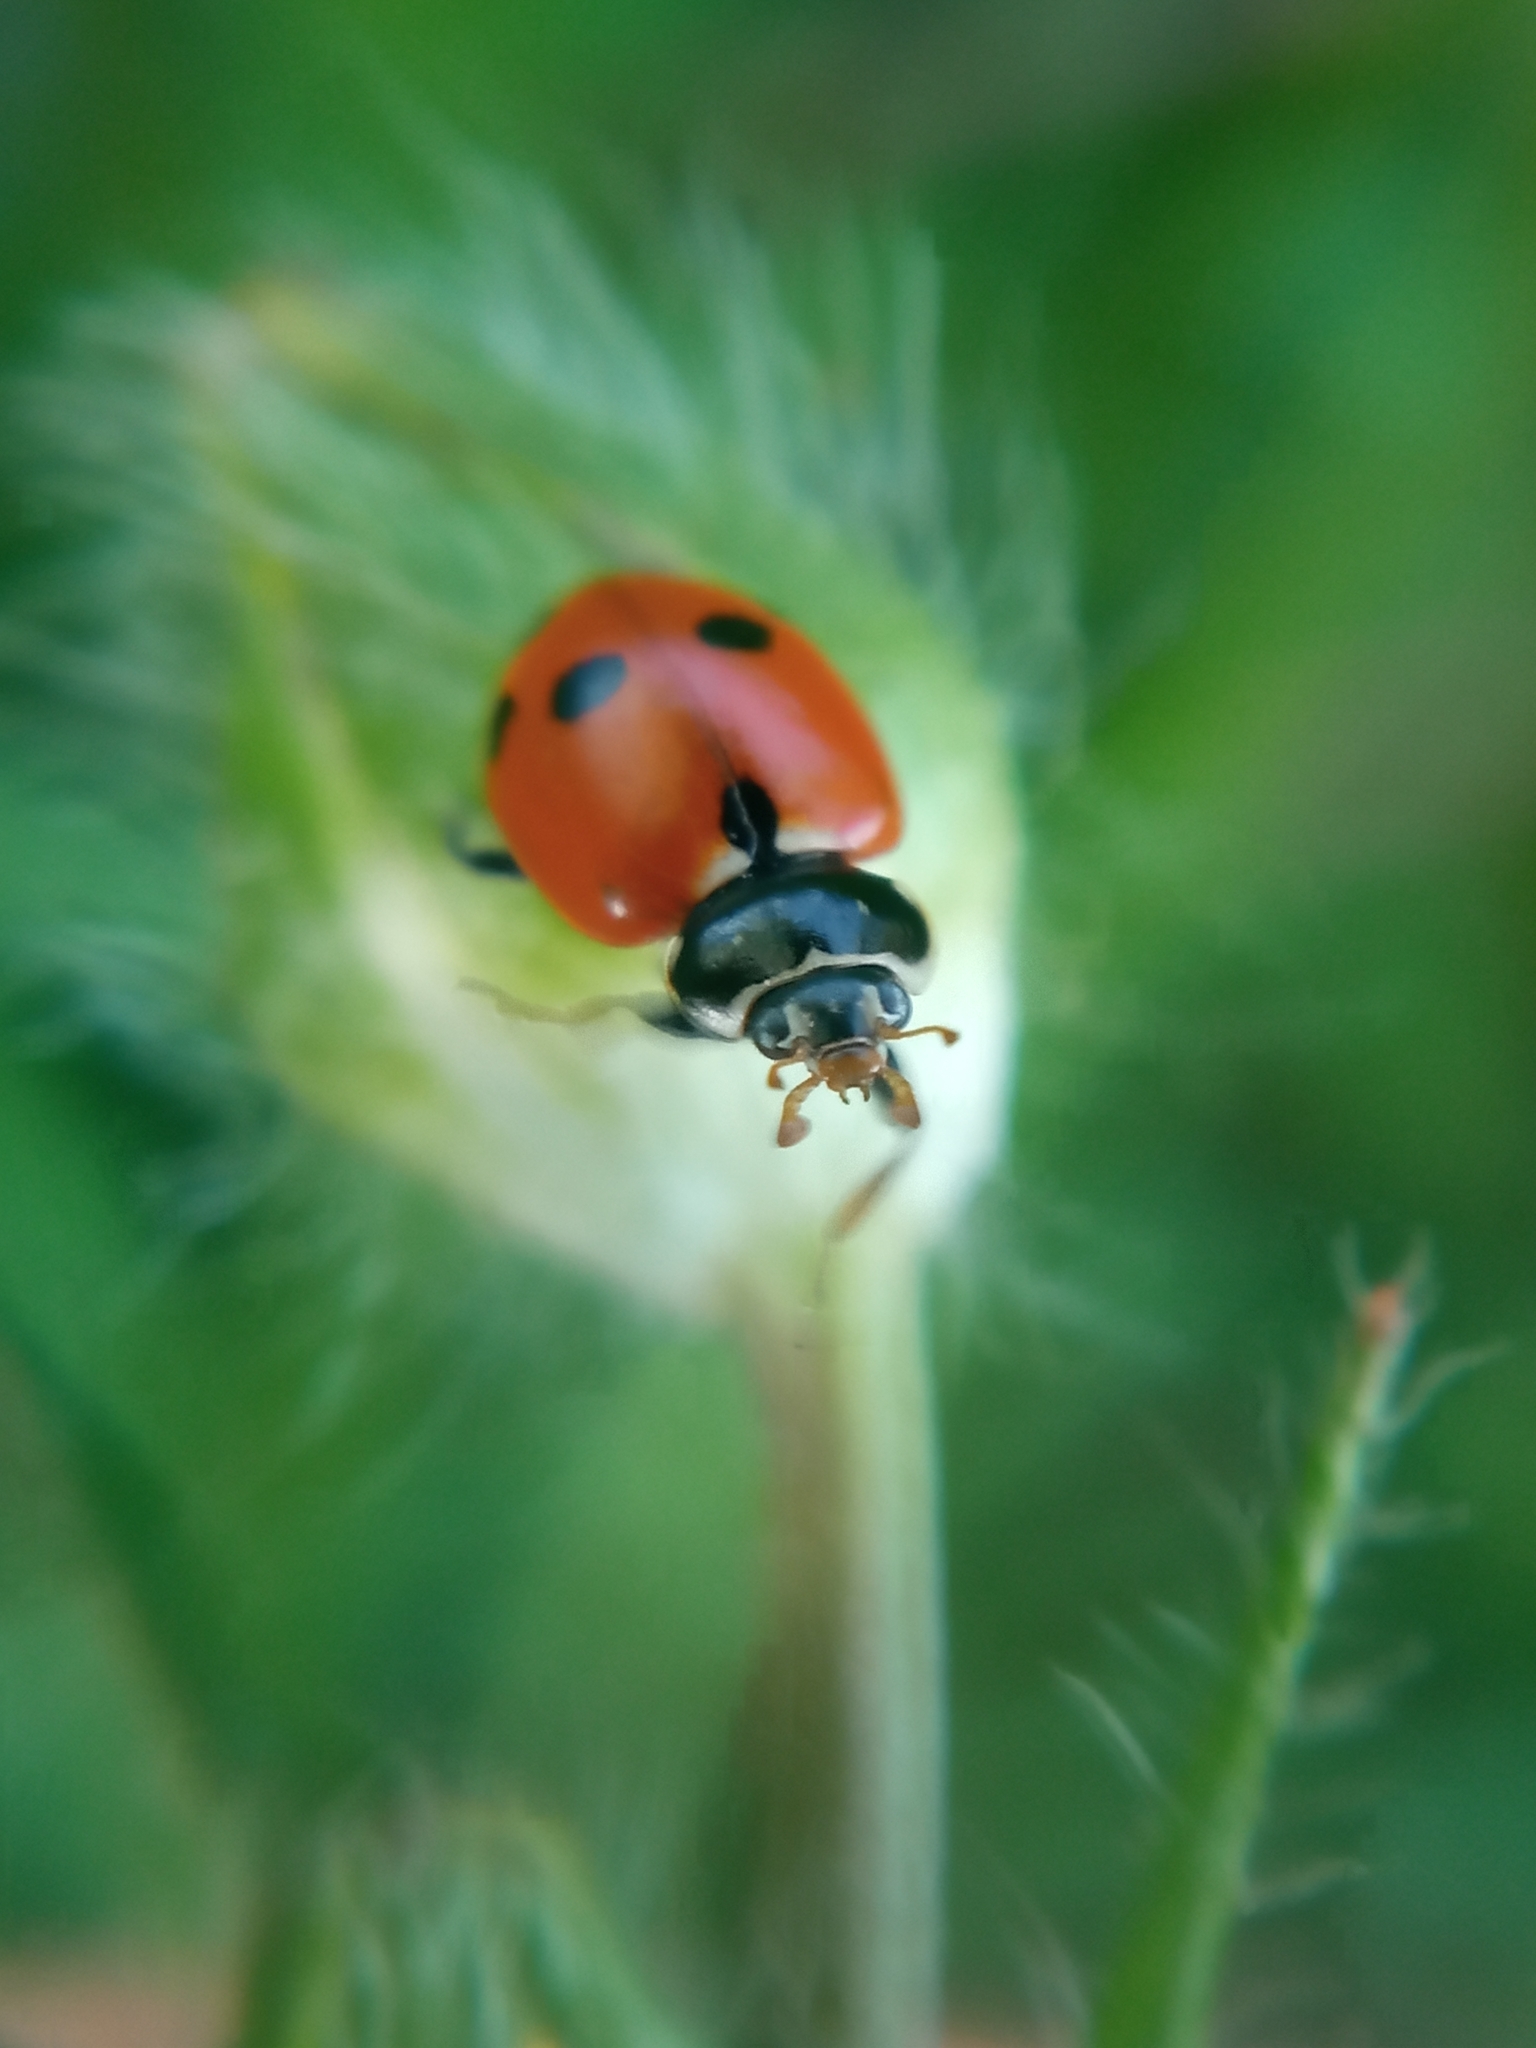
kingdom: Animalia
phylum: Arthropoda
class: Insecta
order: Coleoptera
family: Coccinellidae
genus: Hippodamia
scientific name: Hippodamia variegata
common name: Ladybird beetle
